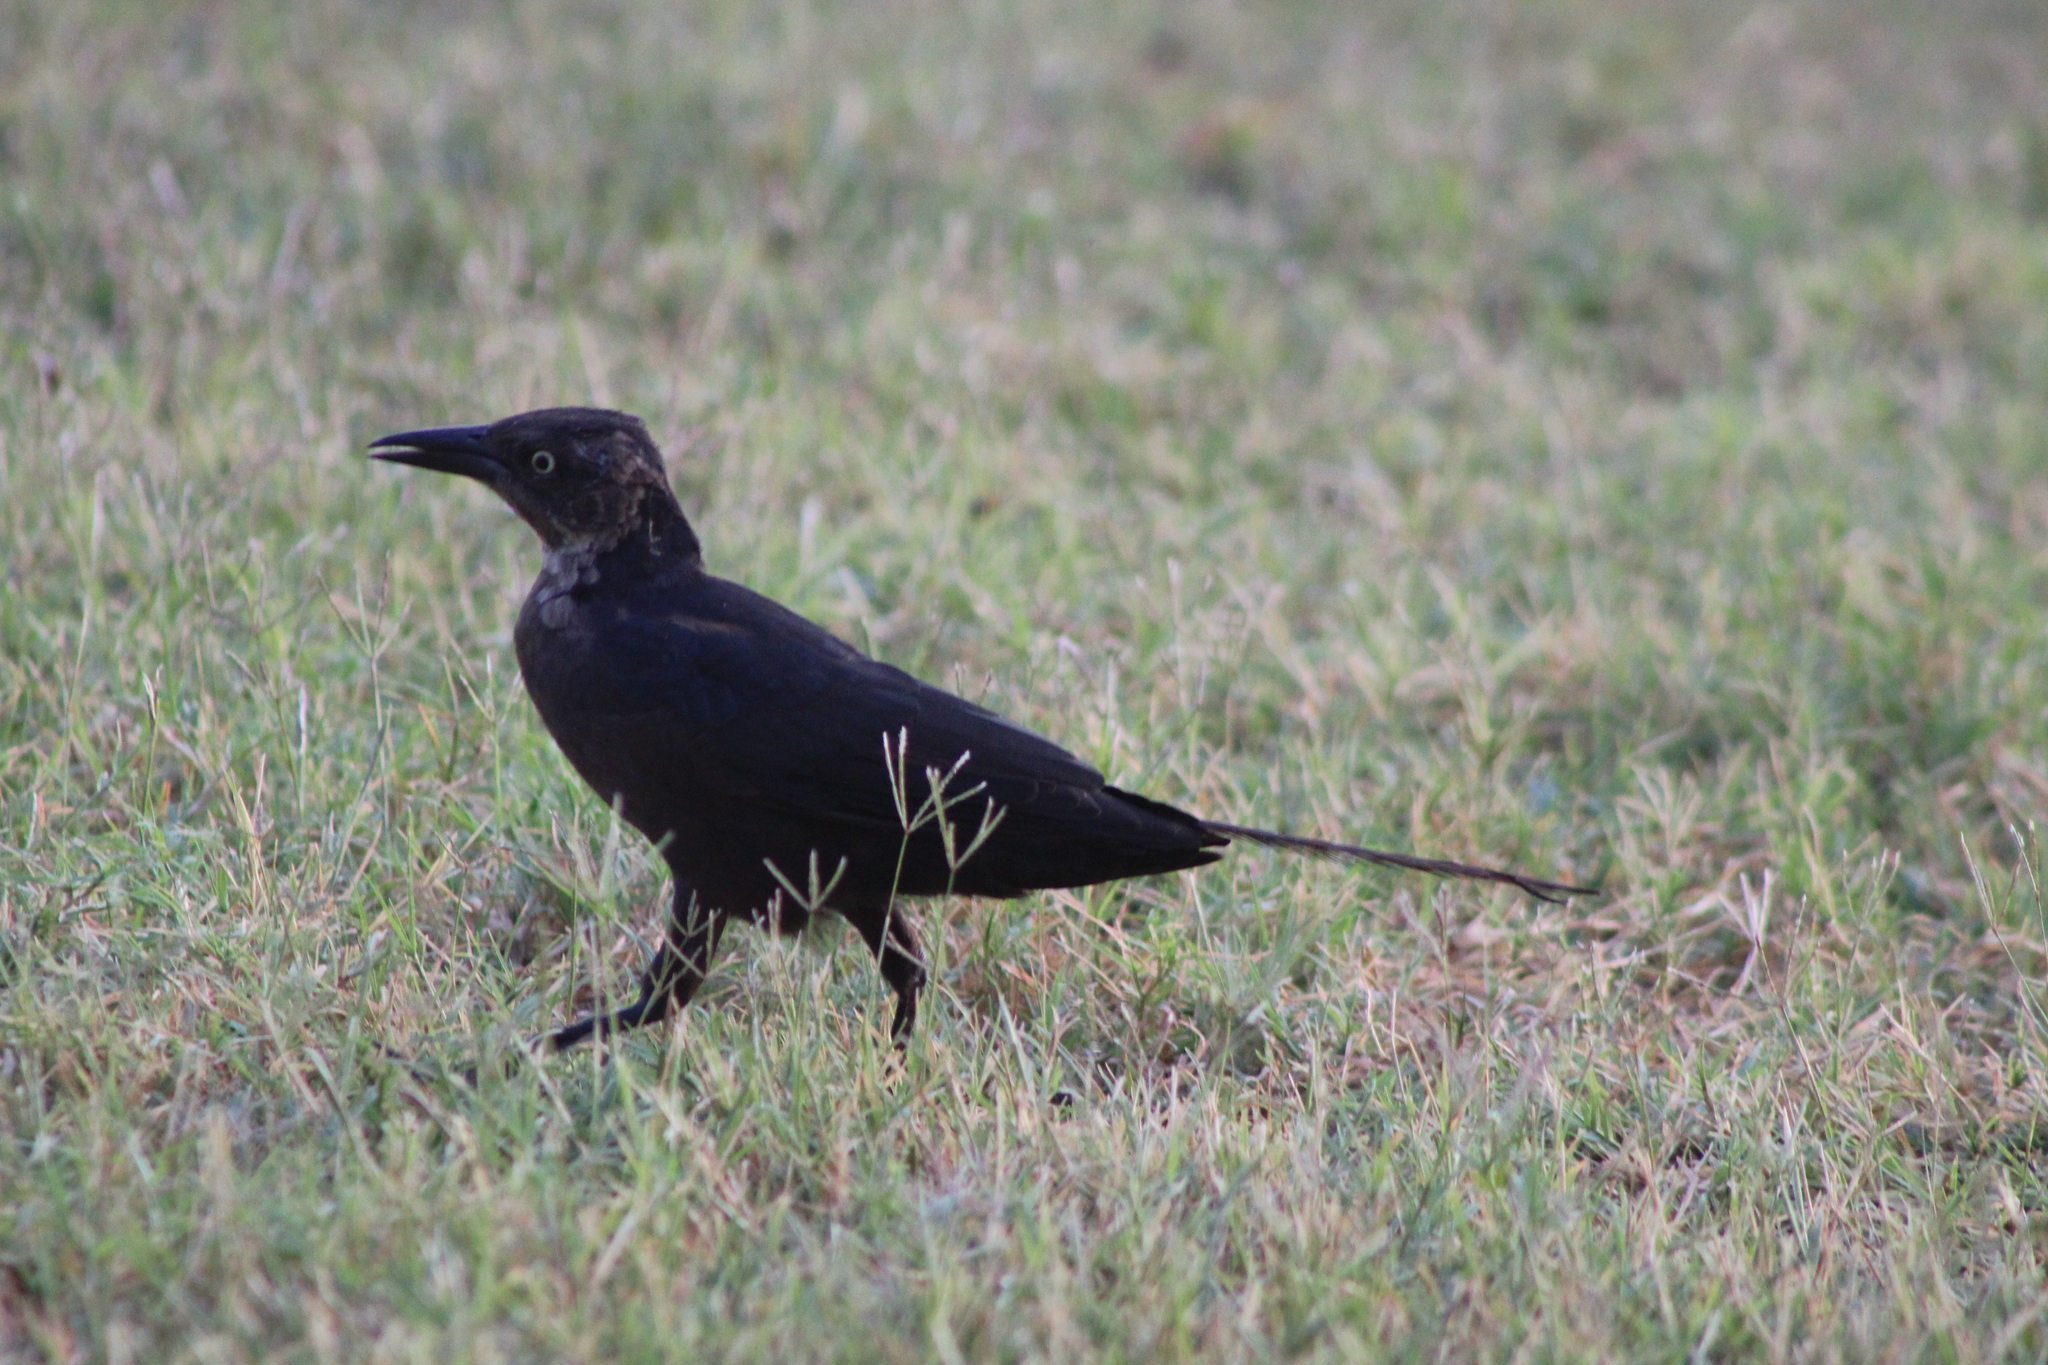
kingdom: Animalia
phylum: Chordata
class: Aves
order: Passeriformes
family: Icteridae
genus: Quiscalus
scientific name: Quiscalus mexicanus
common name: Great-tailed grackle
